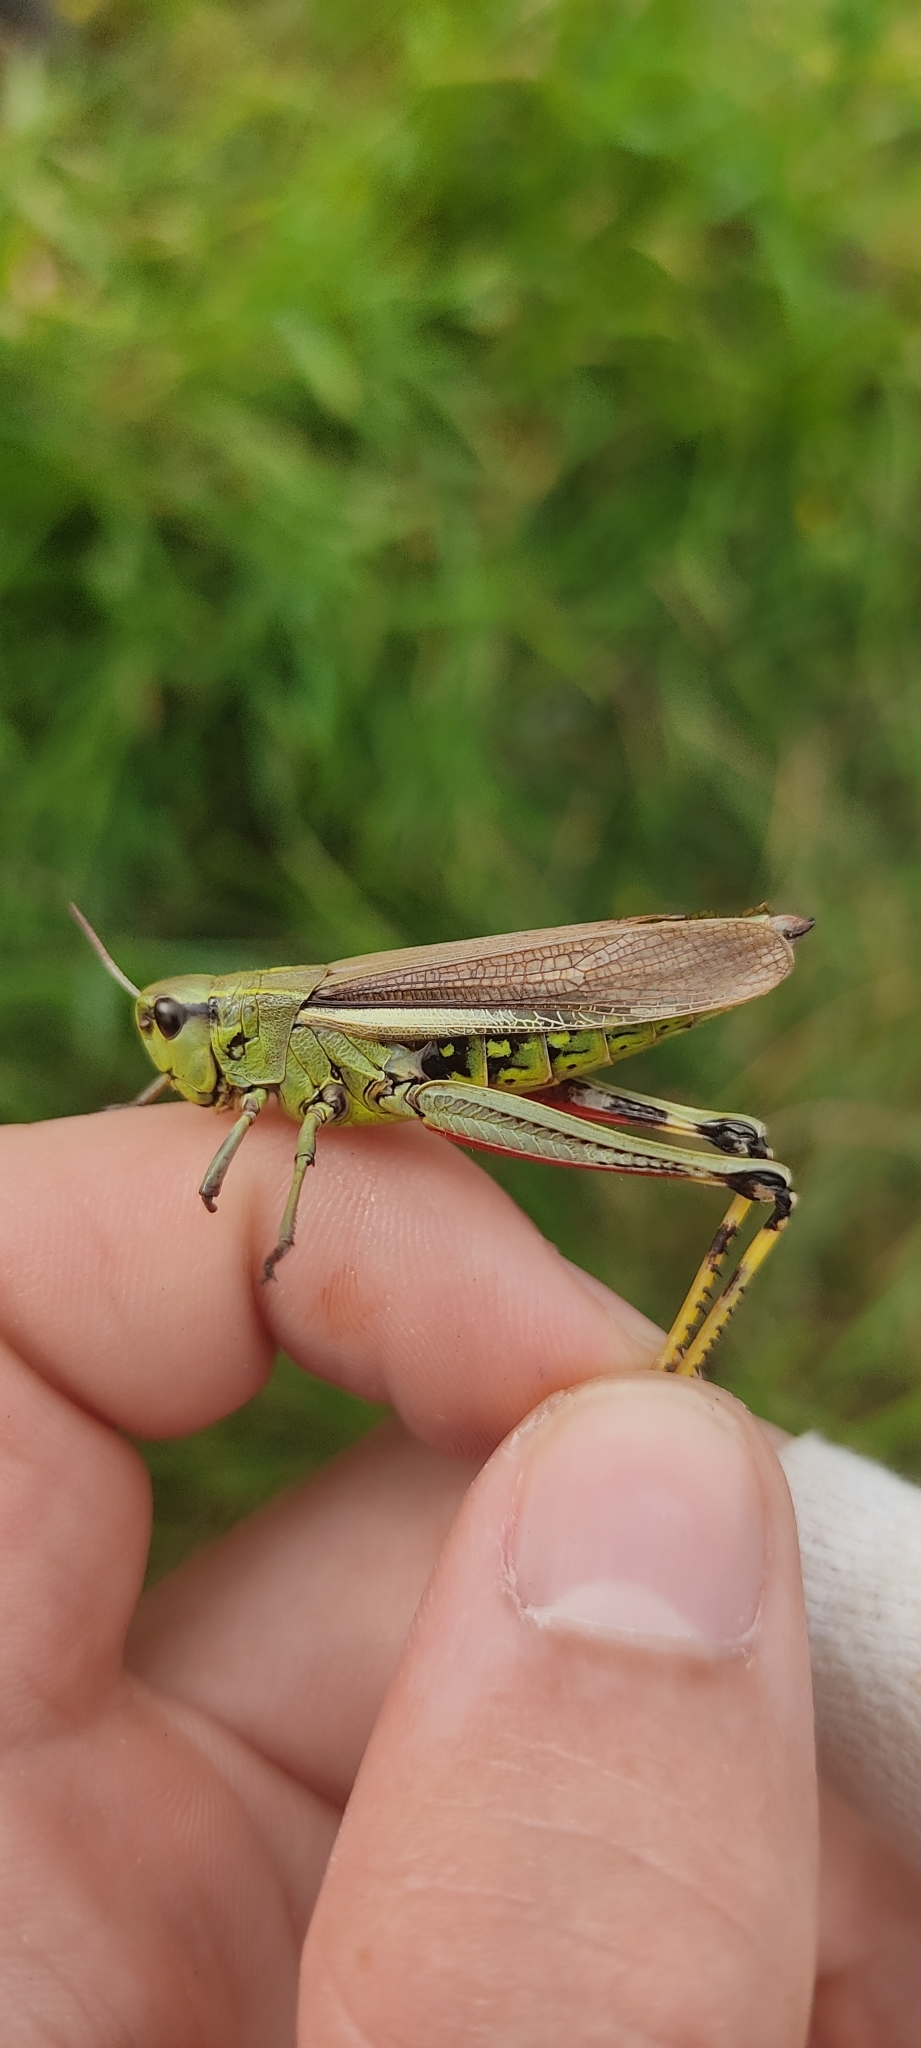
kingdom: Animalia
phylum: Arthropoda
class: Insecta
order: Orthoptera
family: Acrididae
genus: Stethophyma
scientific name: Stethophyma grossum
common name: Large marsh grasshopper
